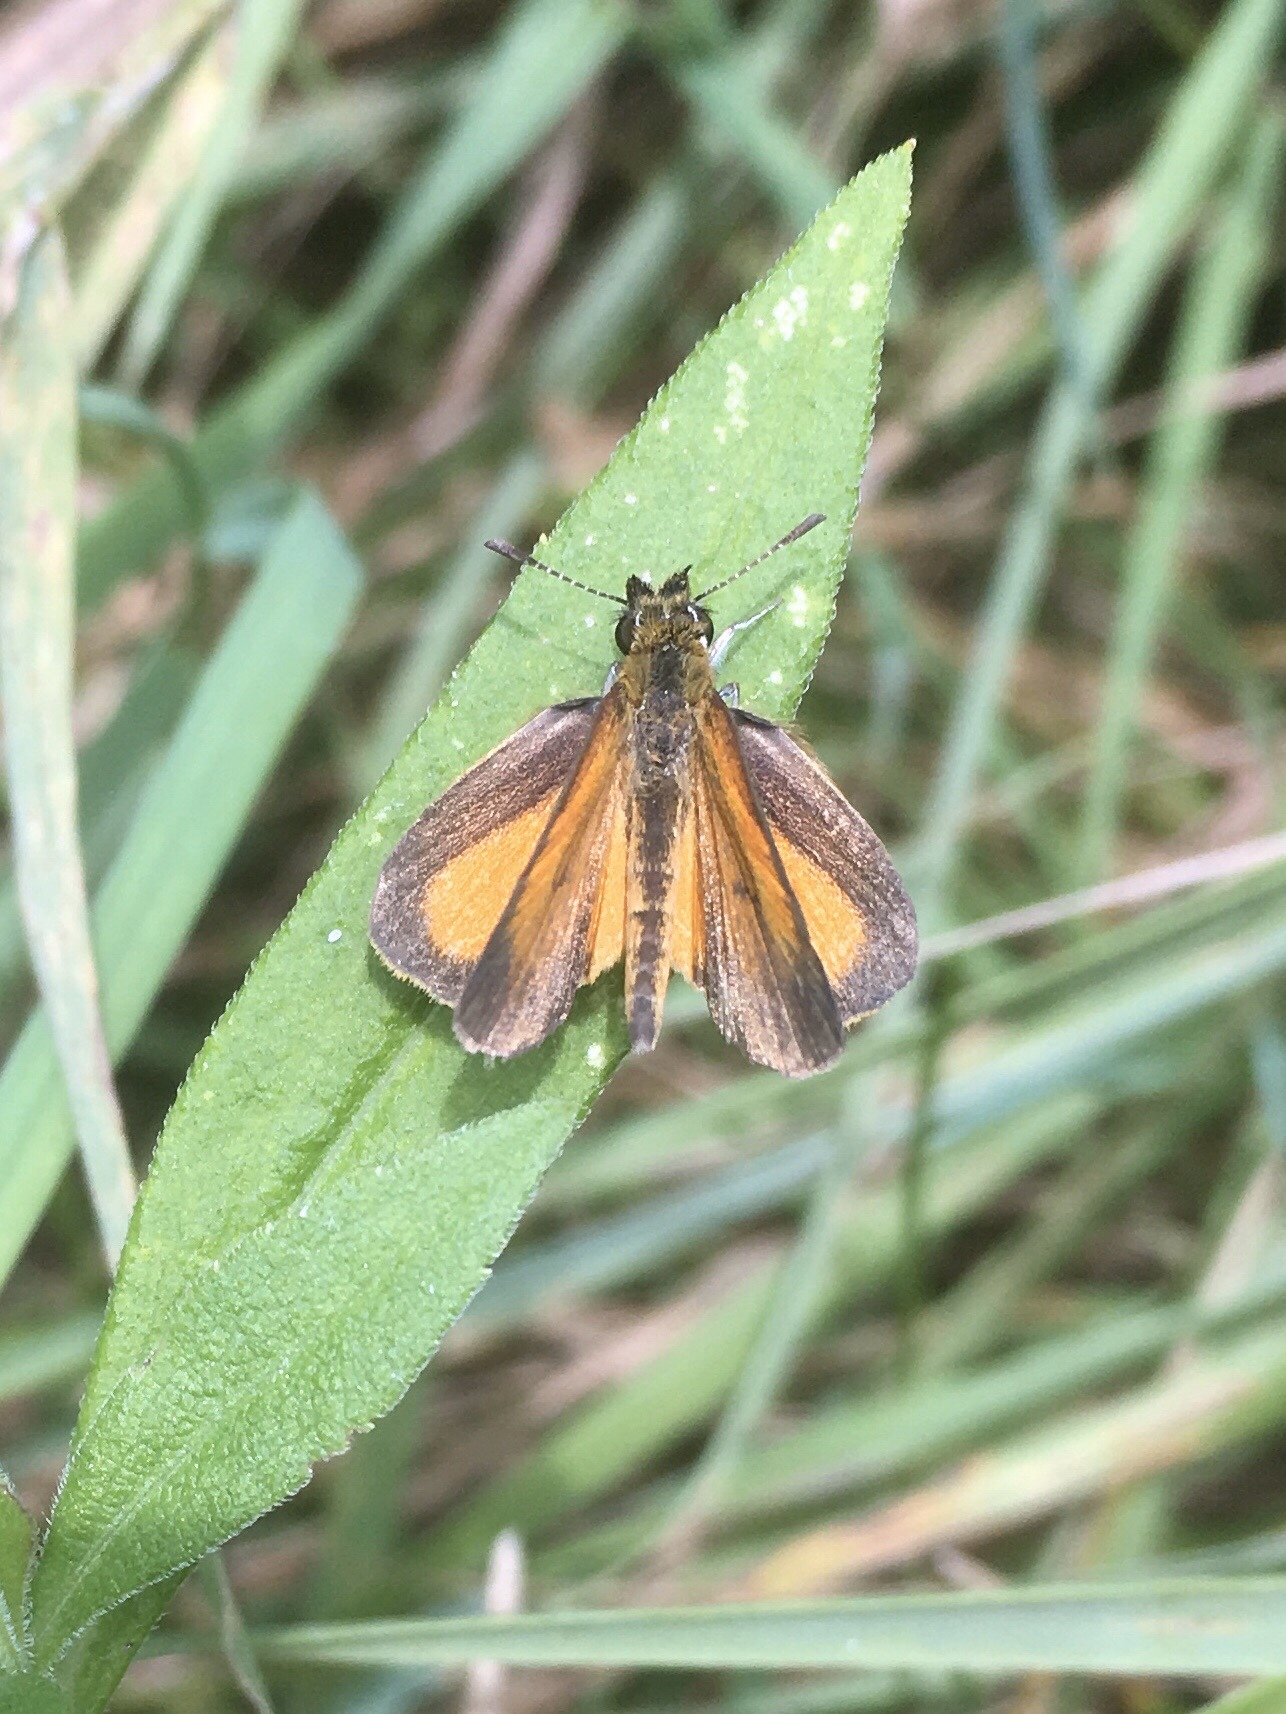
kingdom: Animalia
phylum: Arthropoda
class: Insecta
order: Lepidoptera
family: Hesperiidae
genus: Ancyloxypha
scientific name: Ancyloxypha numitor
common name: Least skipper
